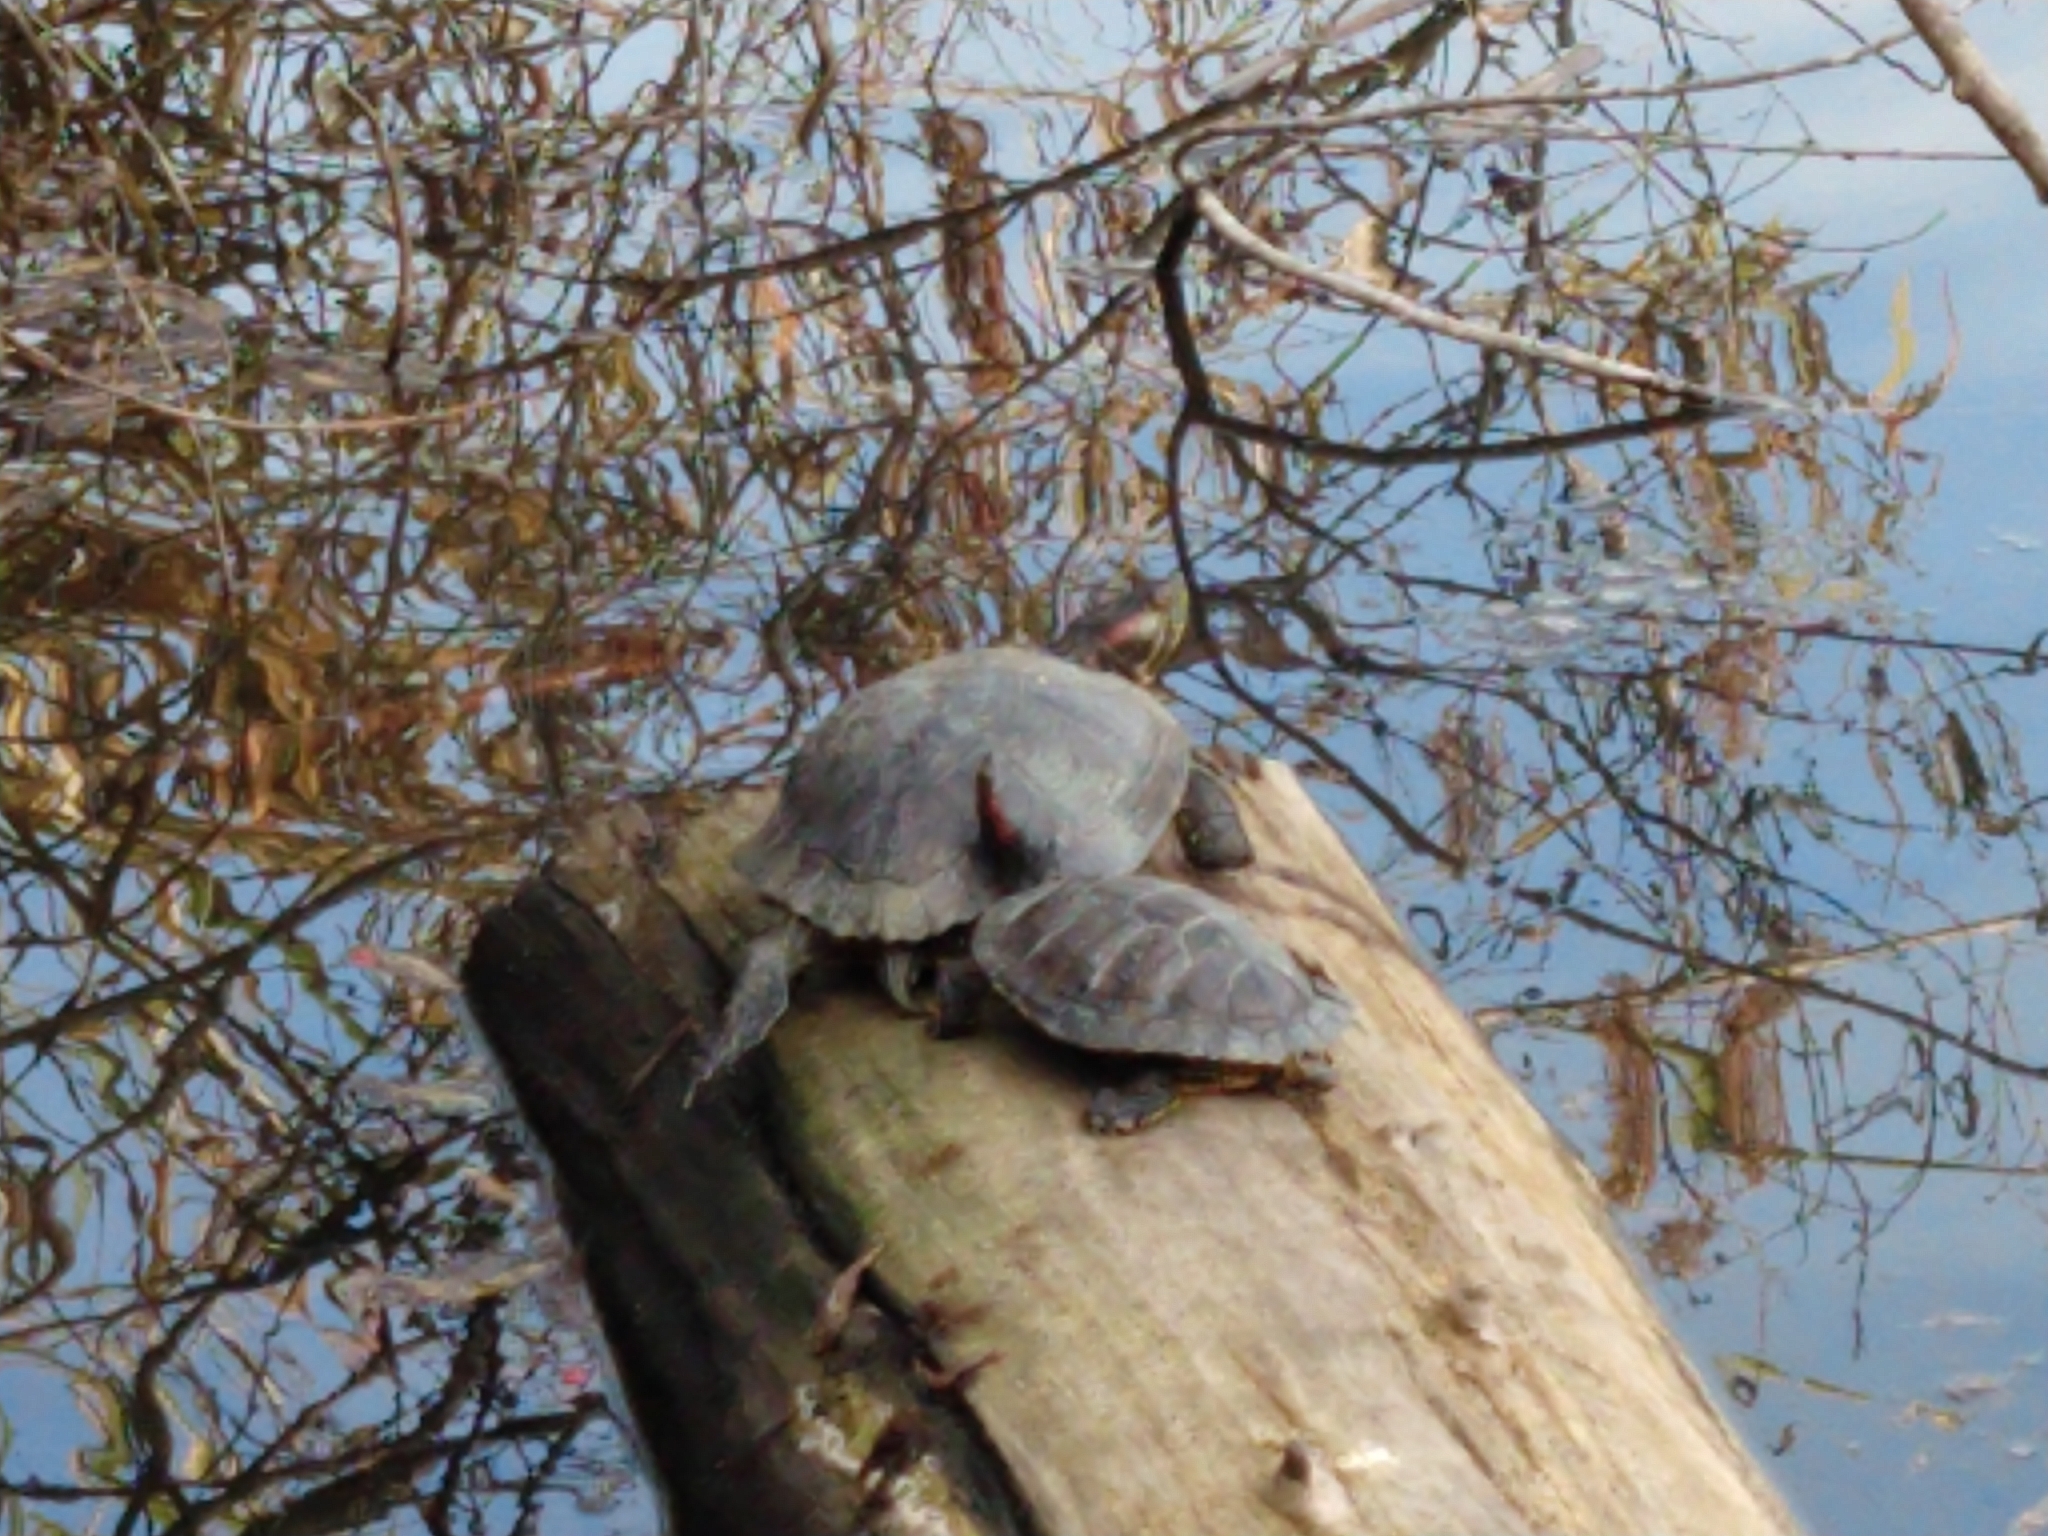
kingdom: Animalia
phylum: Chordata
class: Testudines
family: Emydidae
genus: Trachemys
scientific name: Trachemys scripta
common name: Slider
